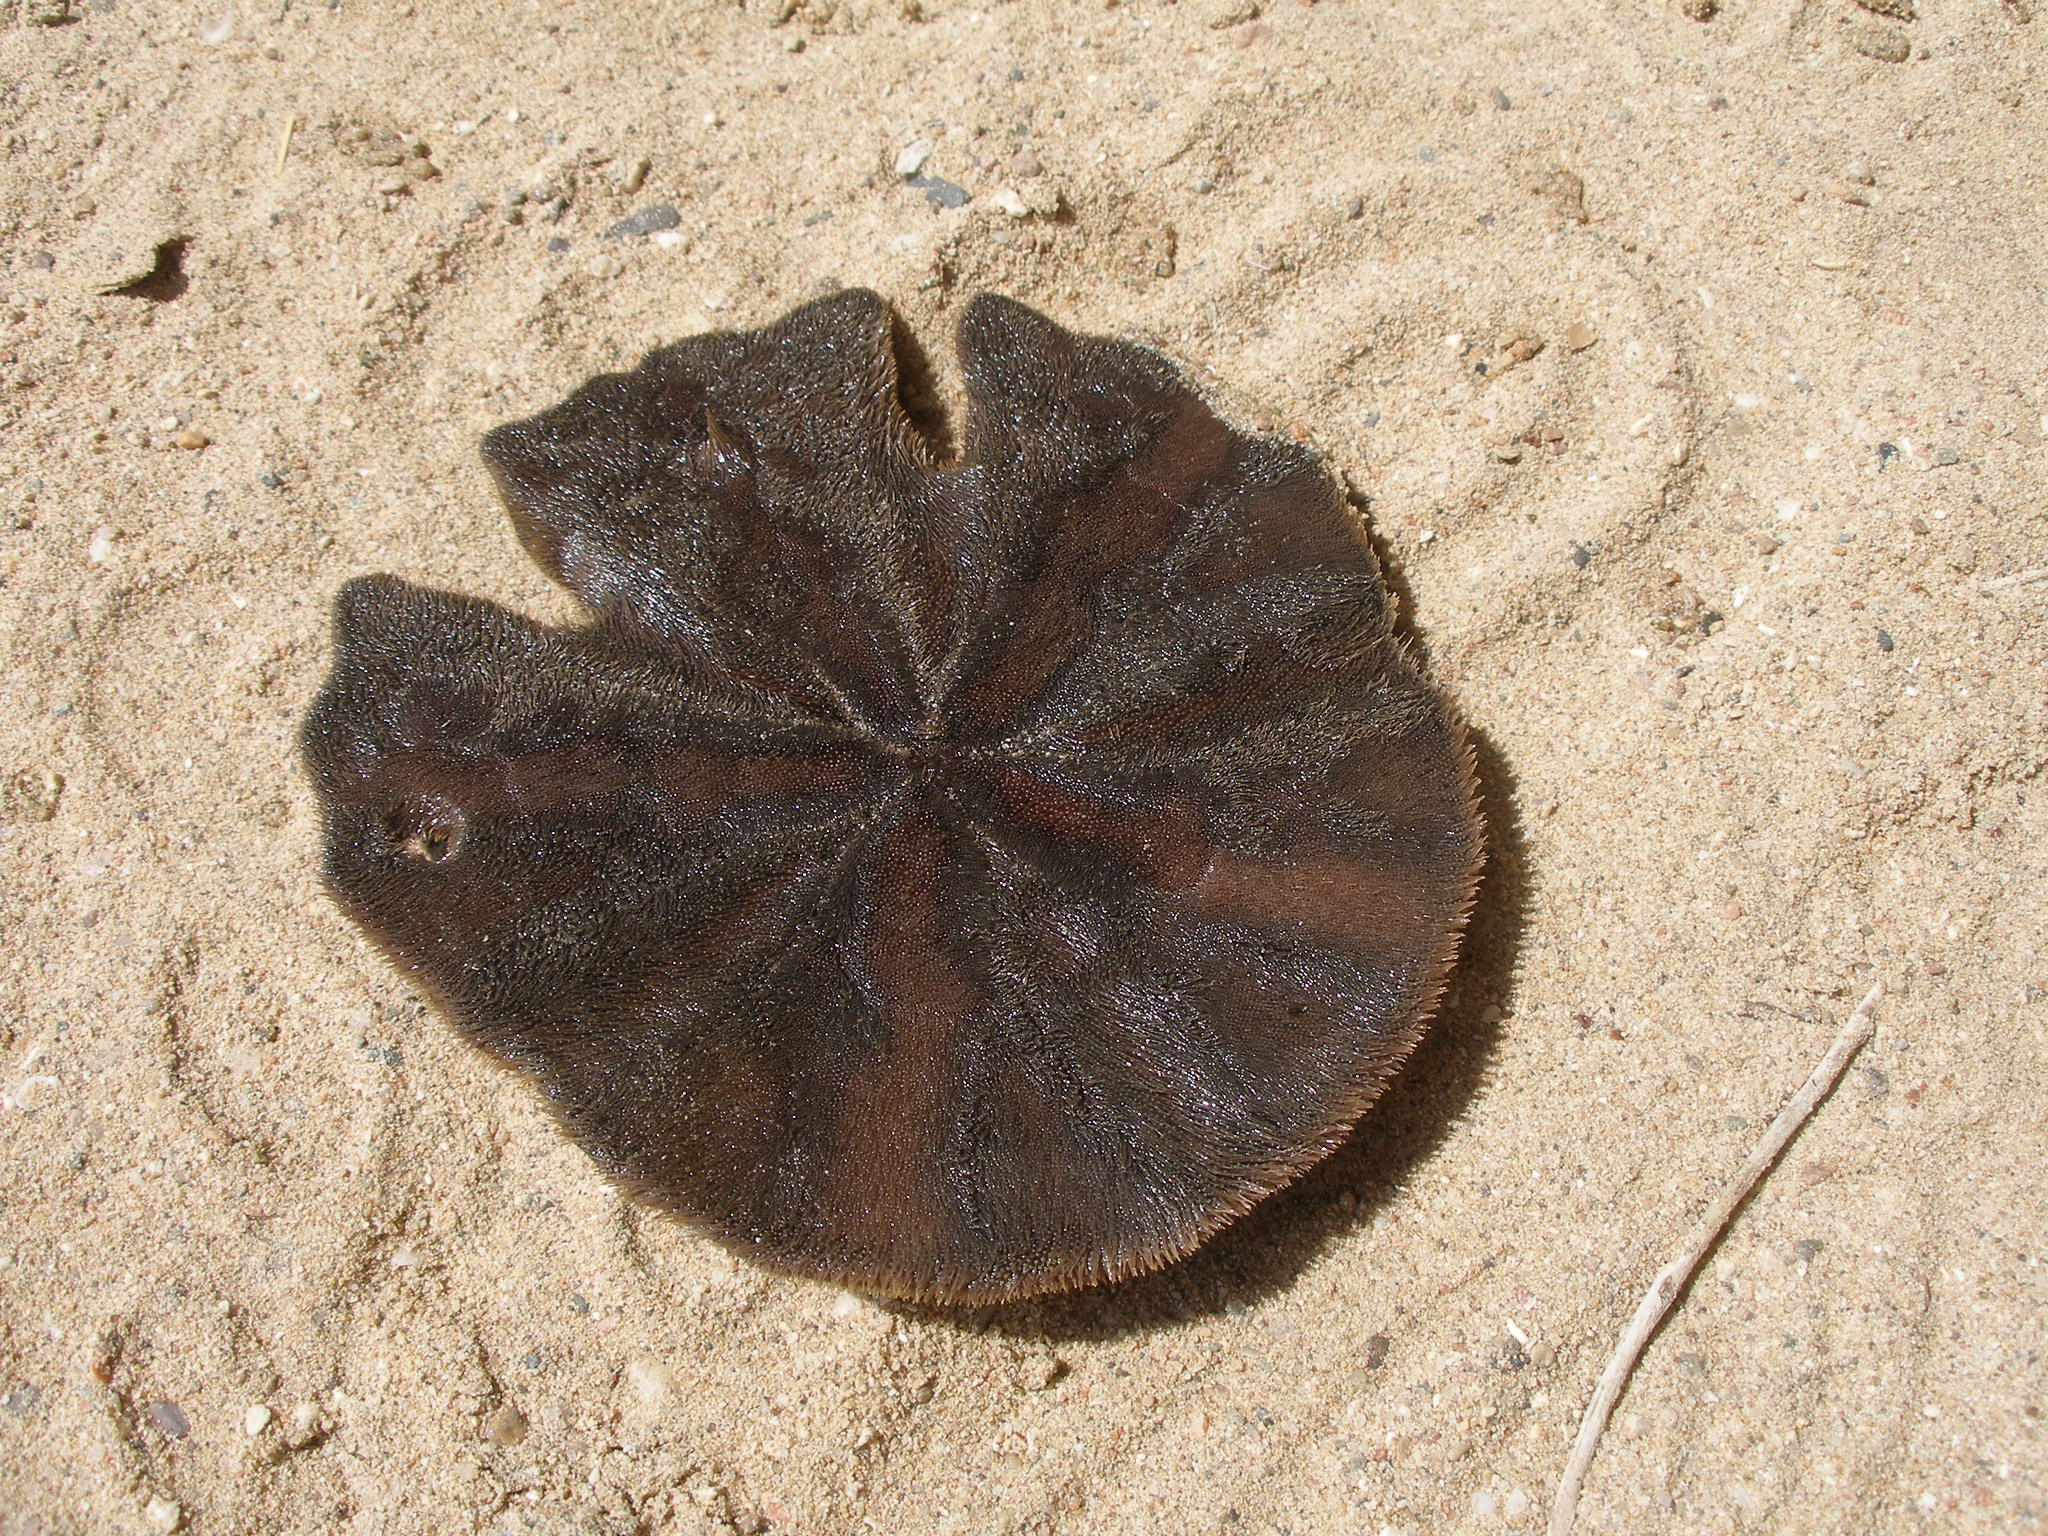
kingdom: Animalia
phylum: Echinodermata
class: Echinoidea
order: Echinolampadacea
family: Astriclypeidae
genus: Sculpsitechinus
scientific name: Sculpsitechinus auritus
